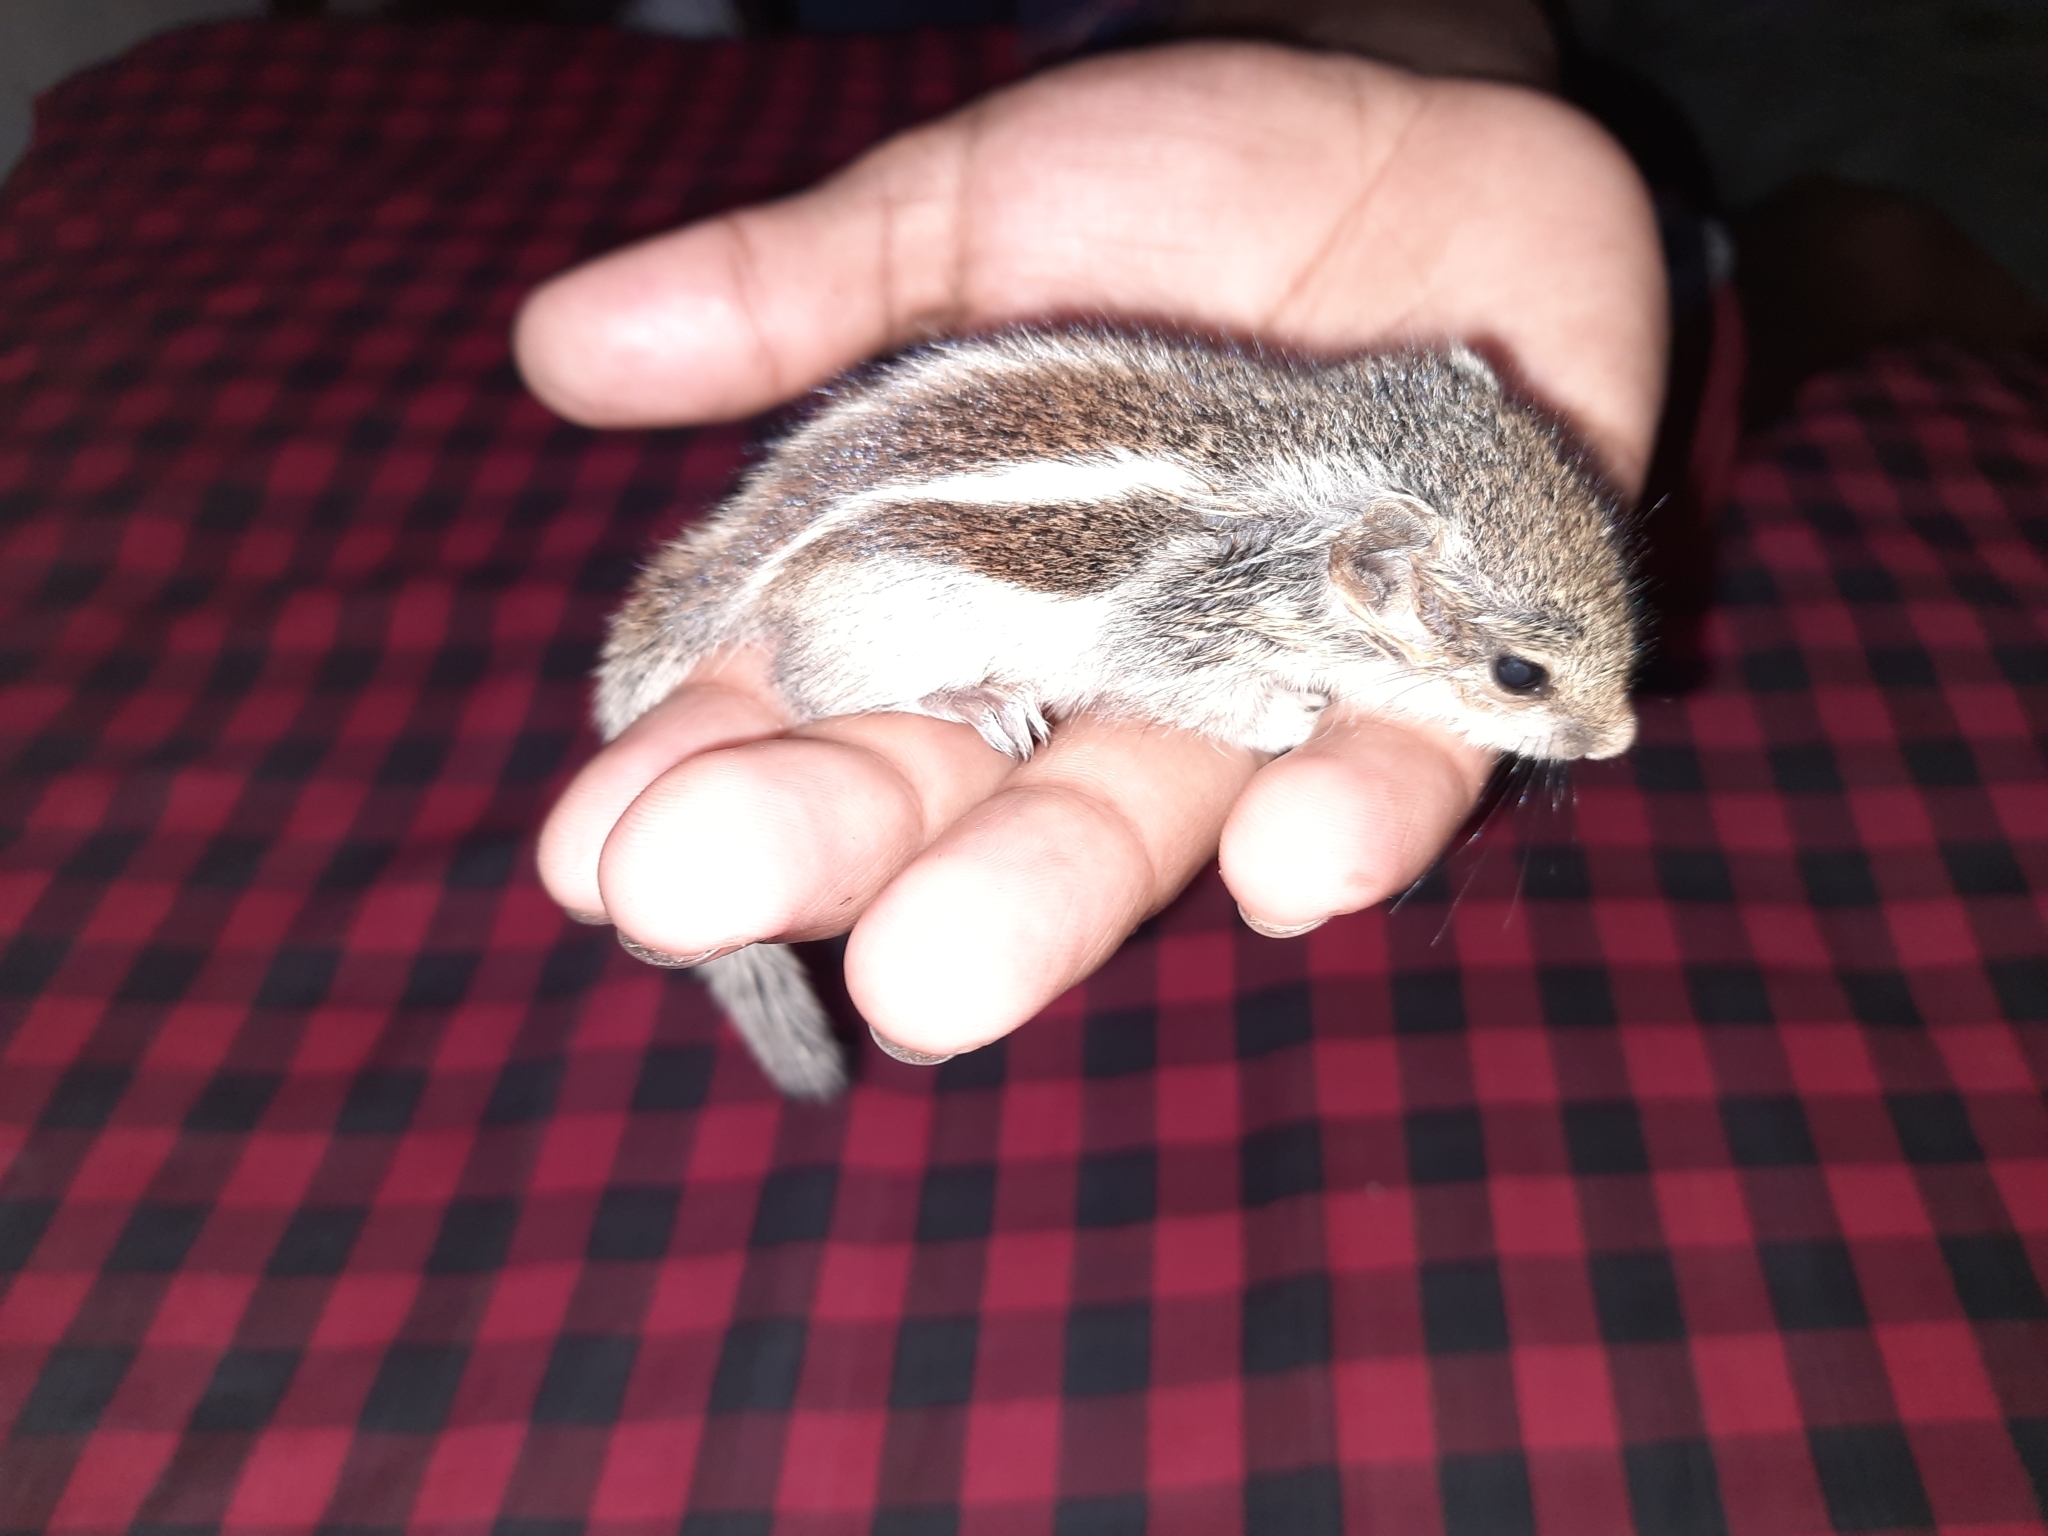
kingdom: Animalia
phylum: Chordata
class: Mammalia
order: Rodentia
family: Sciuridae
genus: Funambulus
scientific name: Funambulus pennantii
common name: Northern palm squirrel
